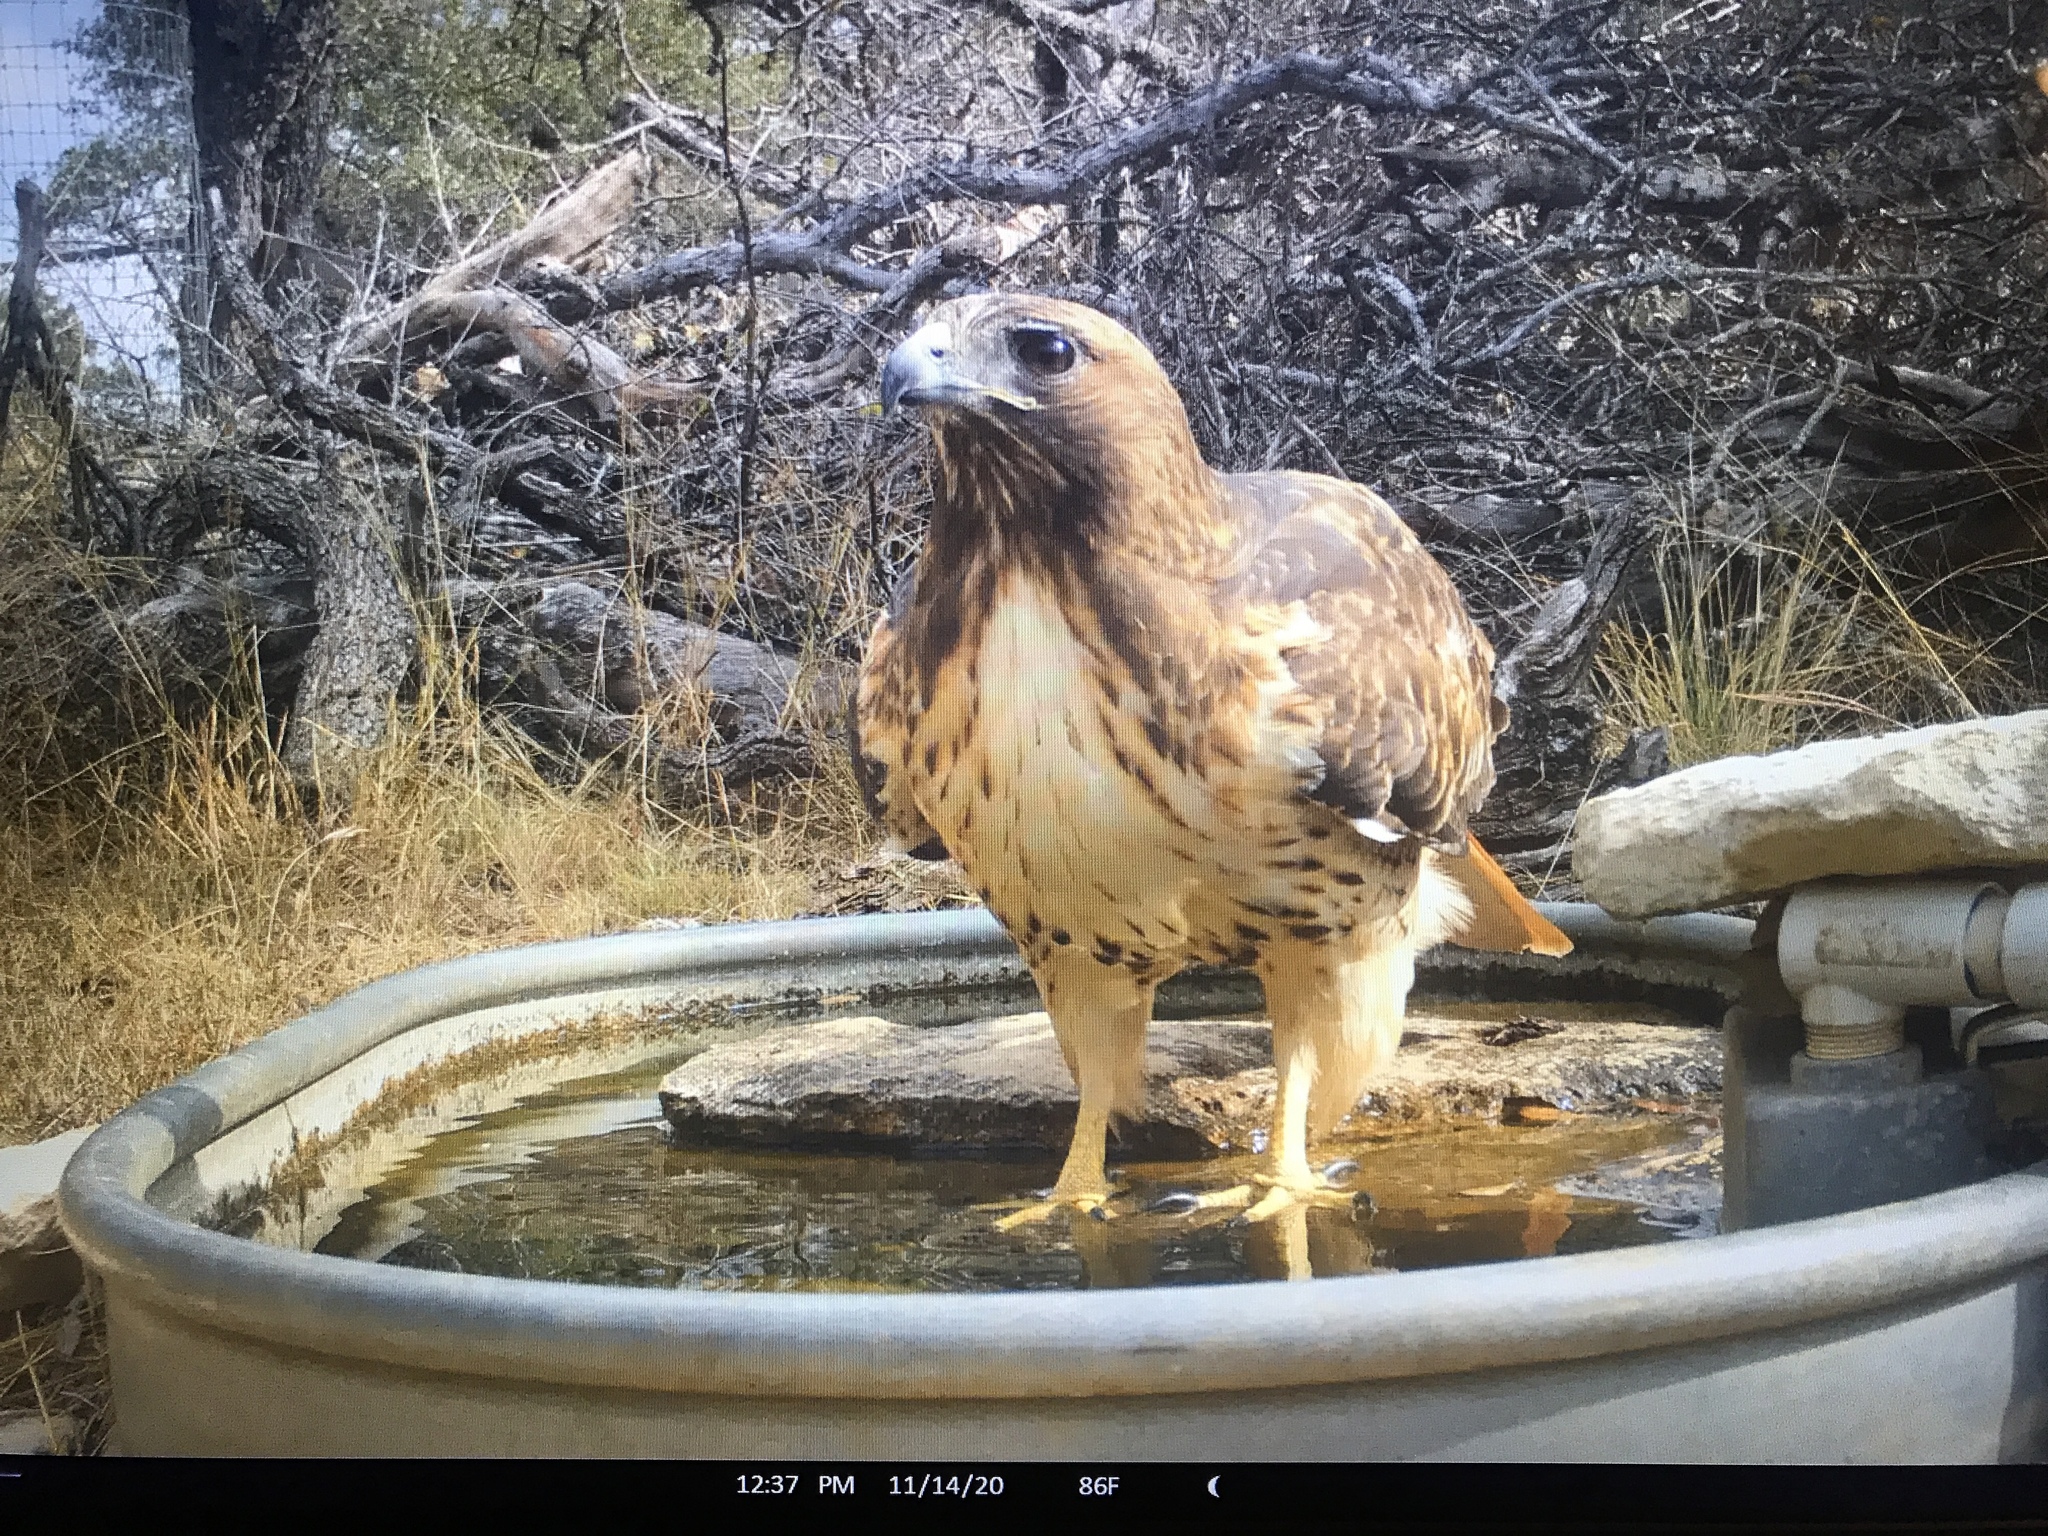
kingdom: Animalia
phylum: Chordata
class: Aves
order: Accipitriformes
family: Accipitridae
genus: Buteo
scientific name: Buteo jamaicensis
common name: Red-tailed hawk
